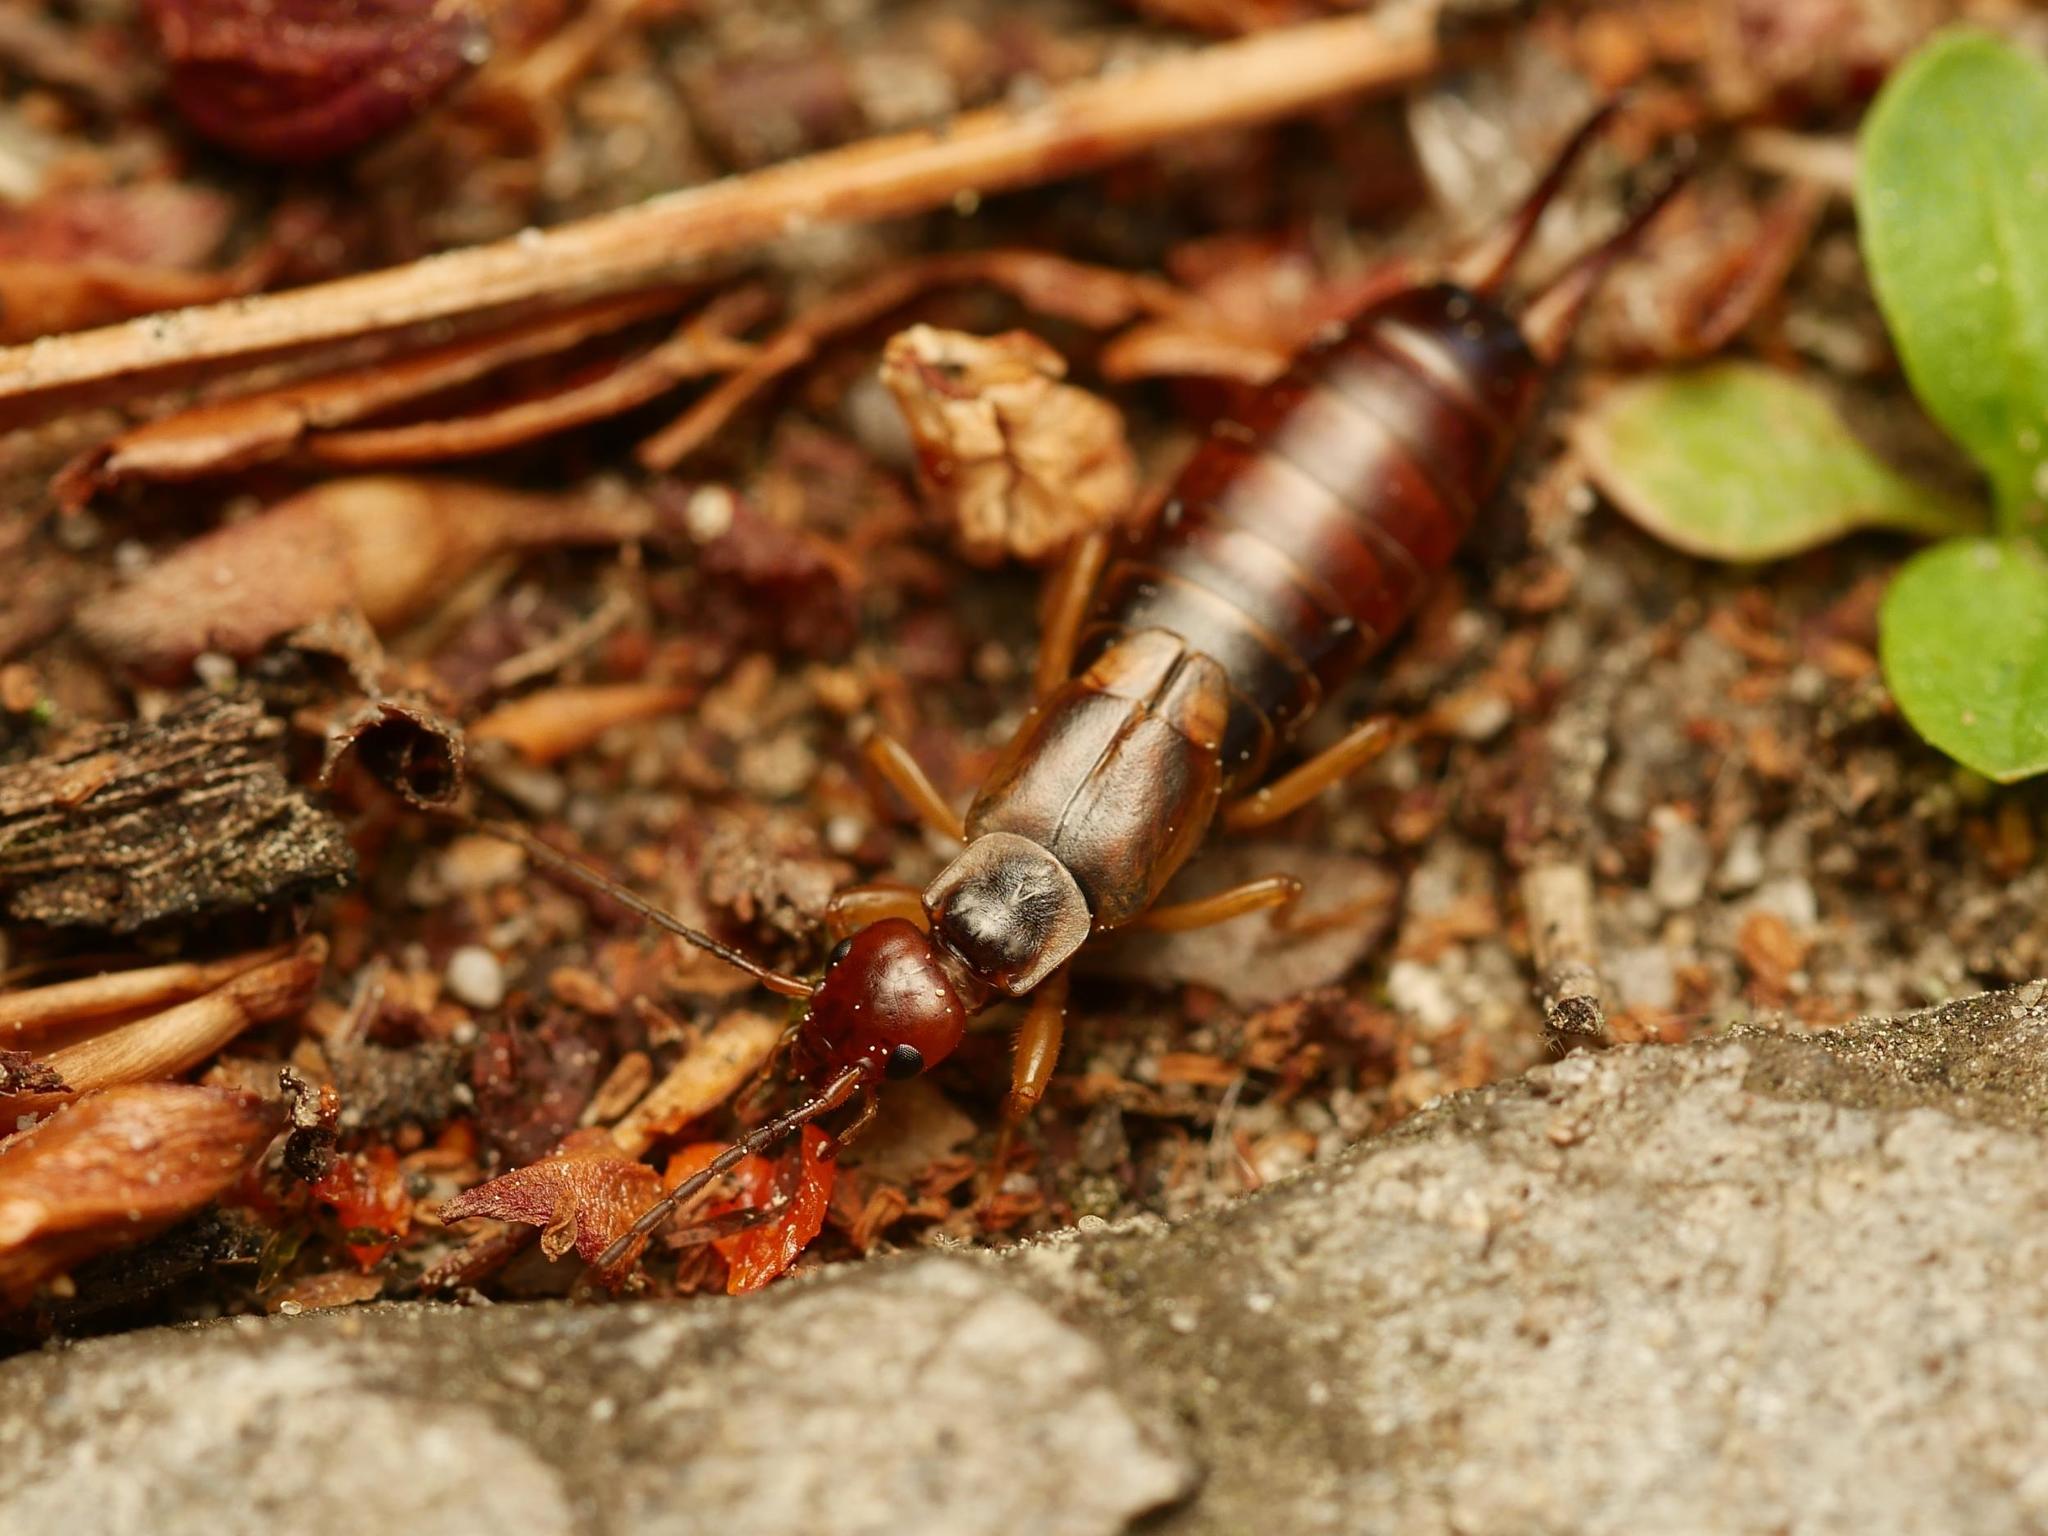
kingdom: Animalia
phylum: Arthropoda
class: Insecta
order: Dermaptera
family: Forficulidae
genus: Forficula
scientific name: Forficula
